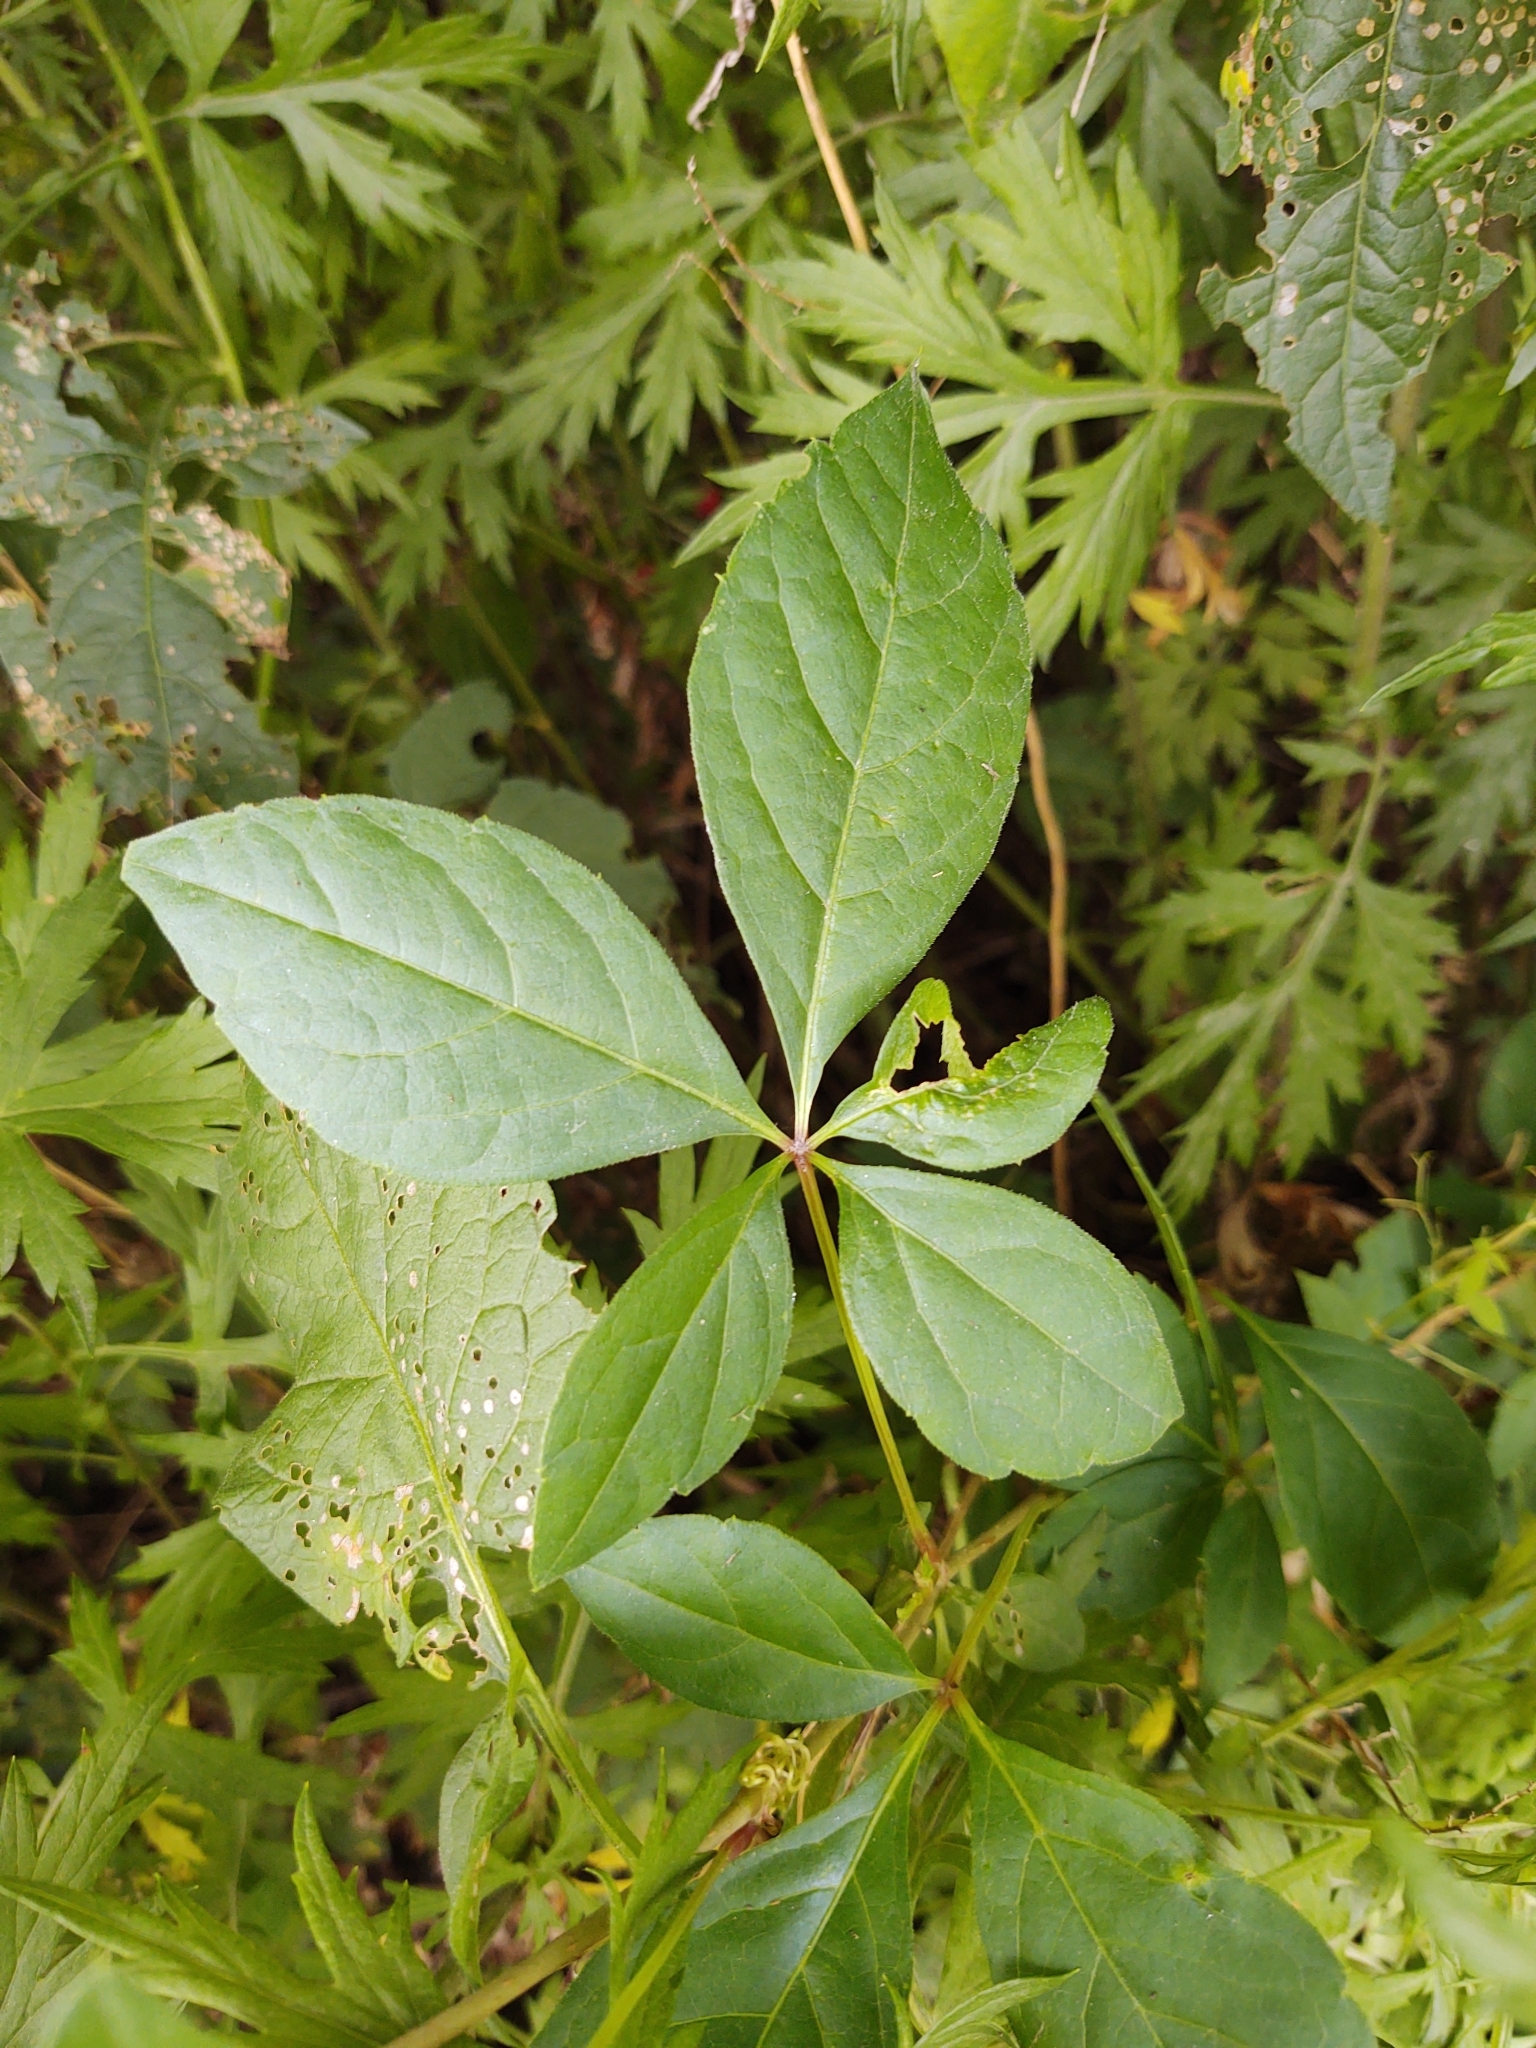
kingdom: Plantae
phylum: Tracheophyta
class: Magnoliopsida
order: Solanales
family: Solanaceae
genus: Solanum
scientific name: Solanum dulcamara
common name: Climbing nightshade
